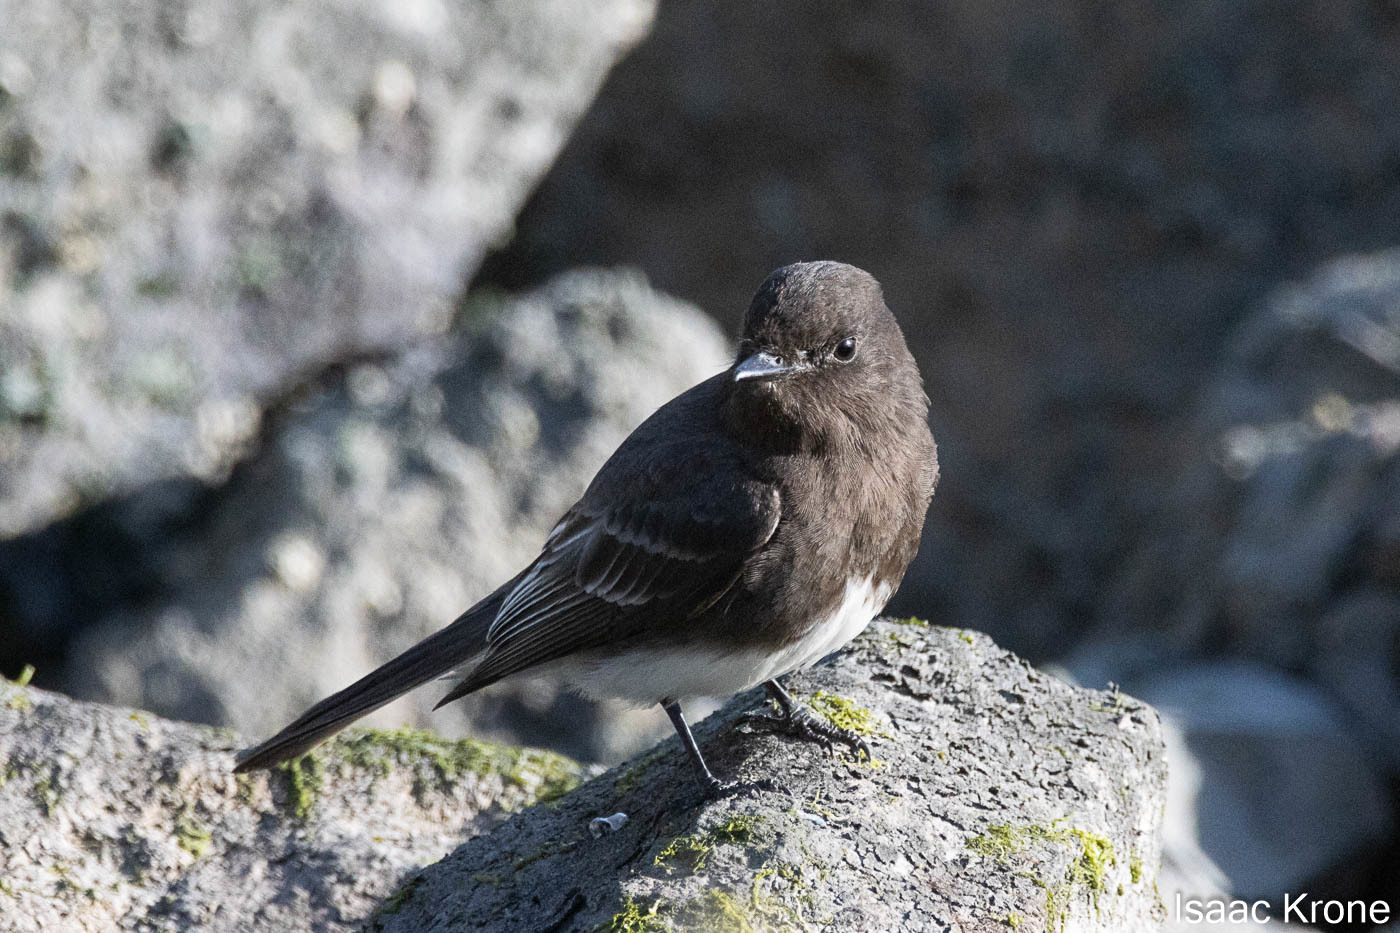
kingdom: Animalia
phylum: Chordata
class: Aves
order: Passeriformes
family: Tyrannidae
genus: Sayornis
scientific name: Sayornis nigricans
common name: Black phoebe
